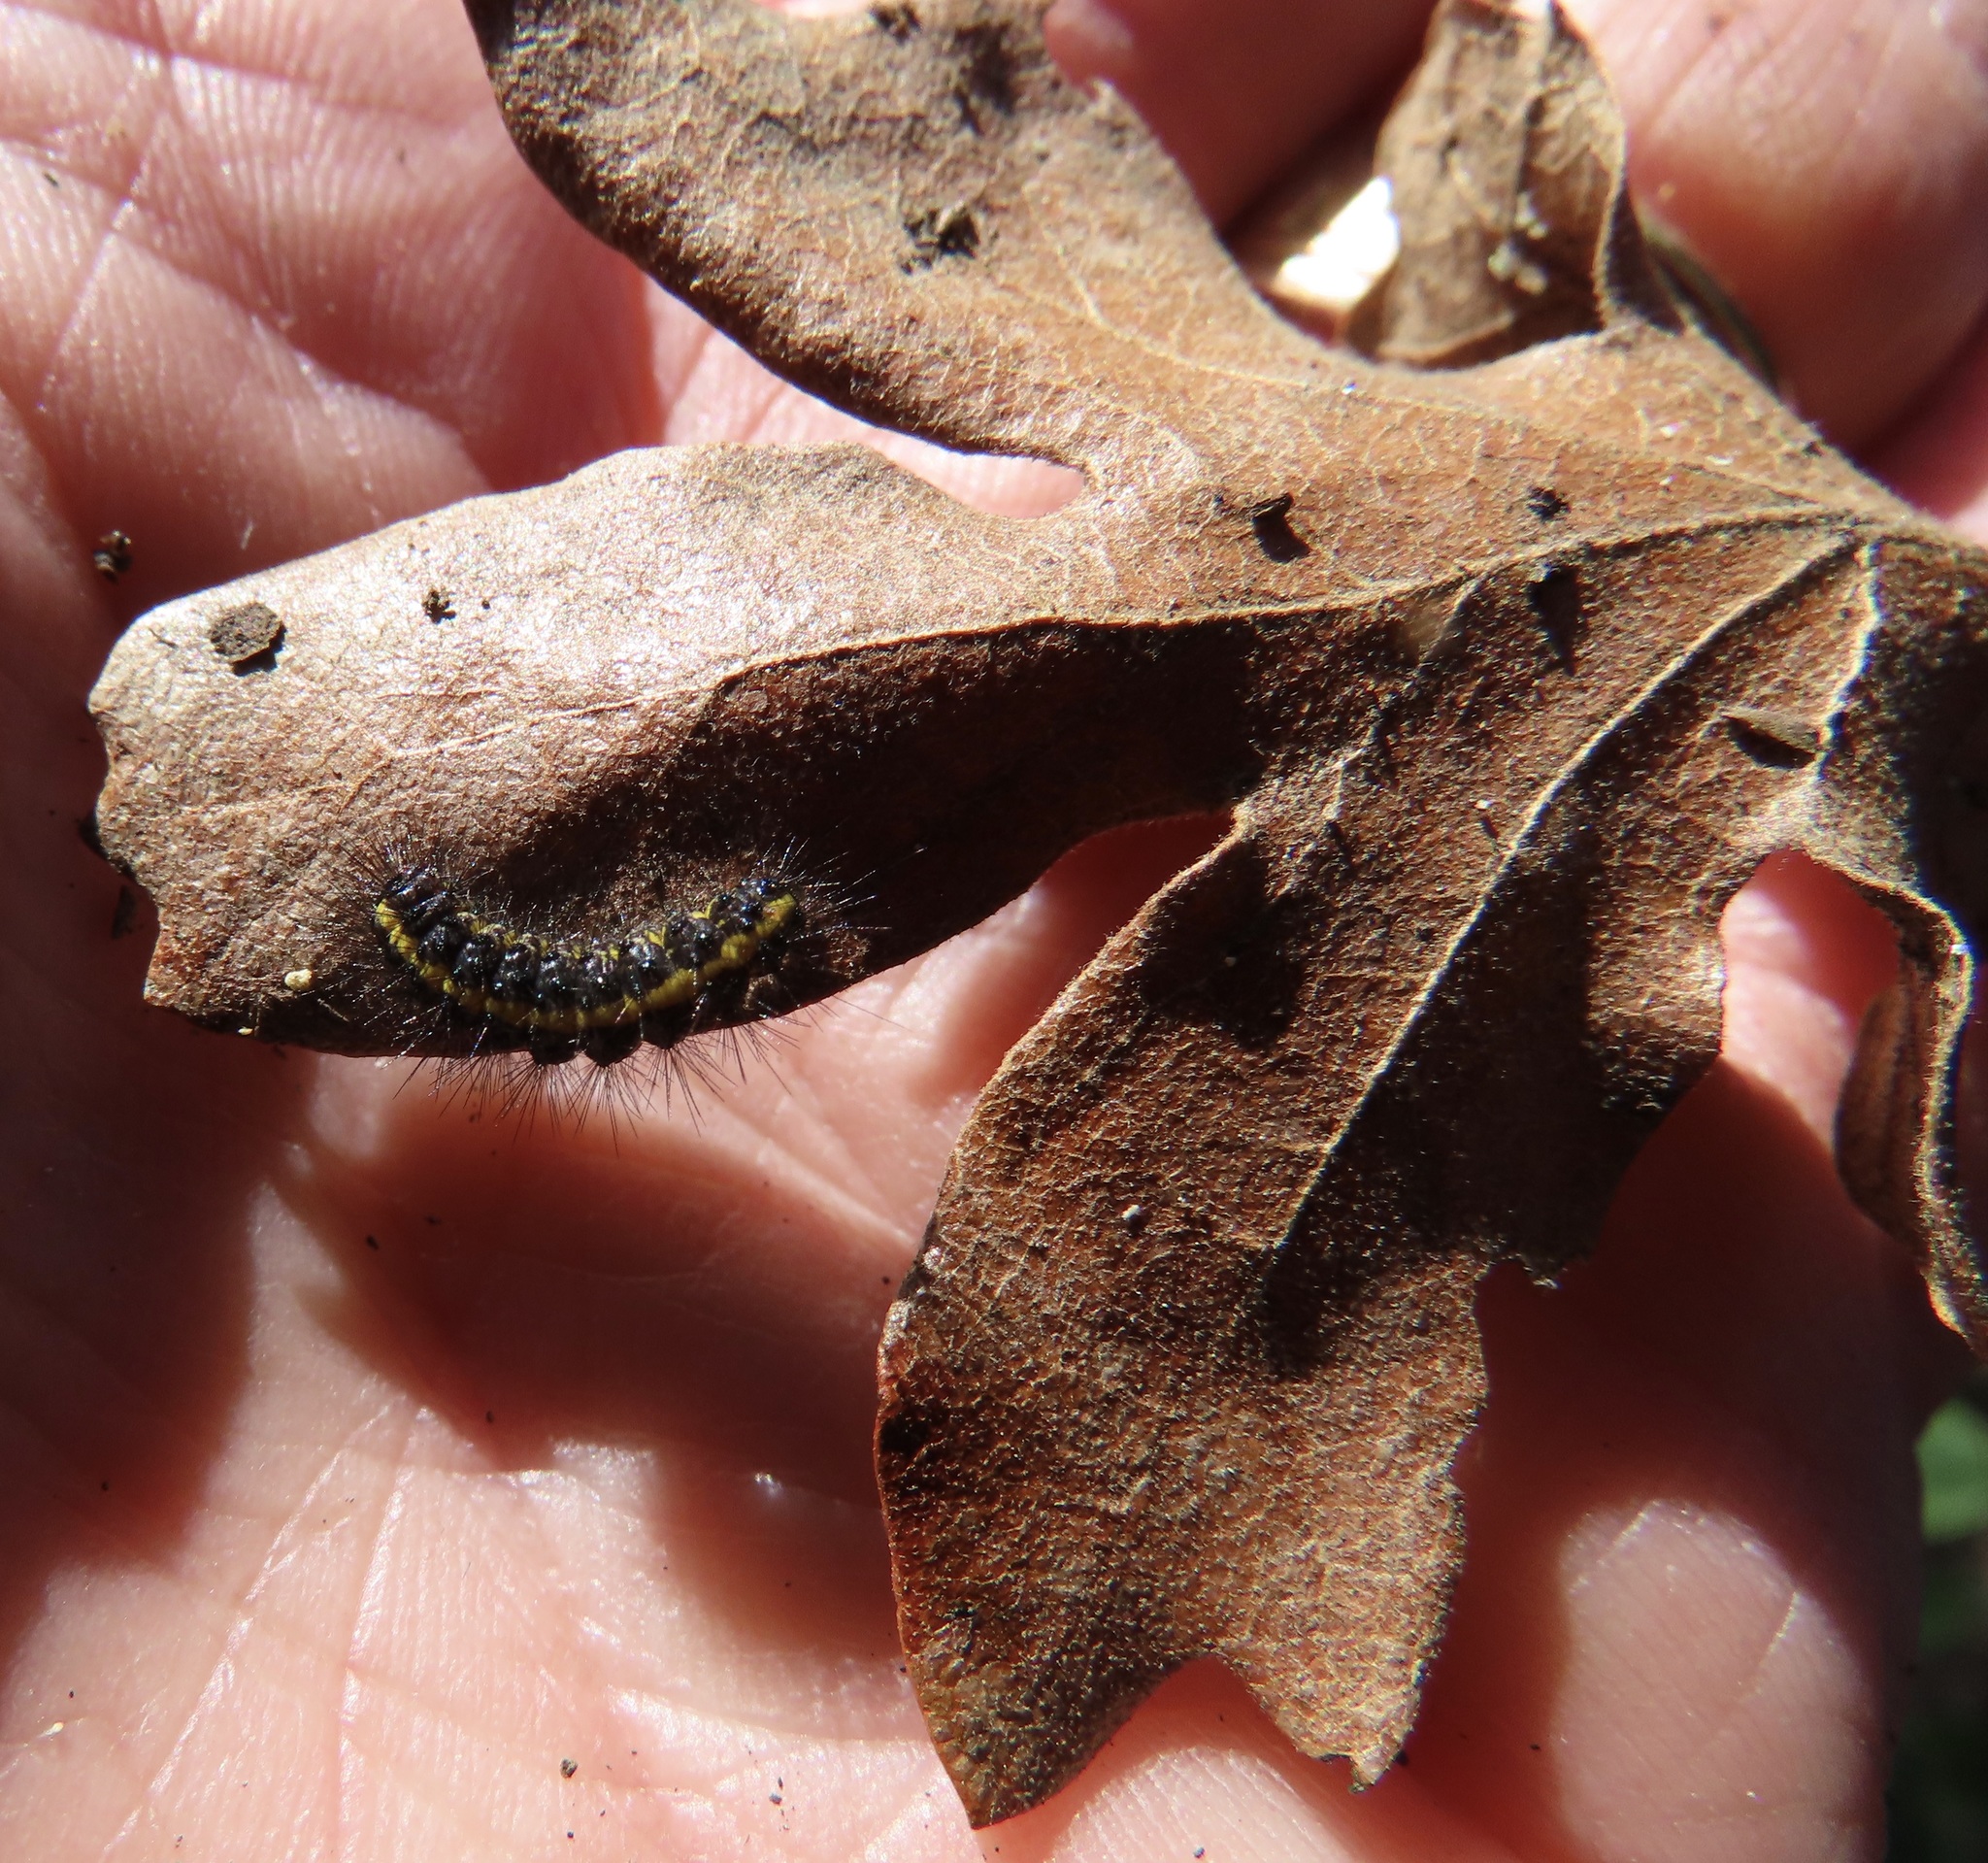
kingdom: Animalia
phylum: Arthropoda
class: Insecta
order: Lepidoptera
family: Erebidae
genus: Gnophaela
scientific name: Gnophaela latipennis
